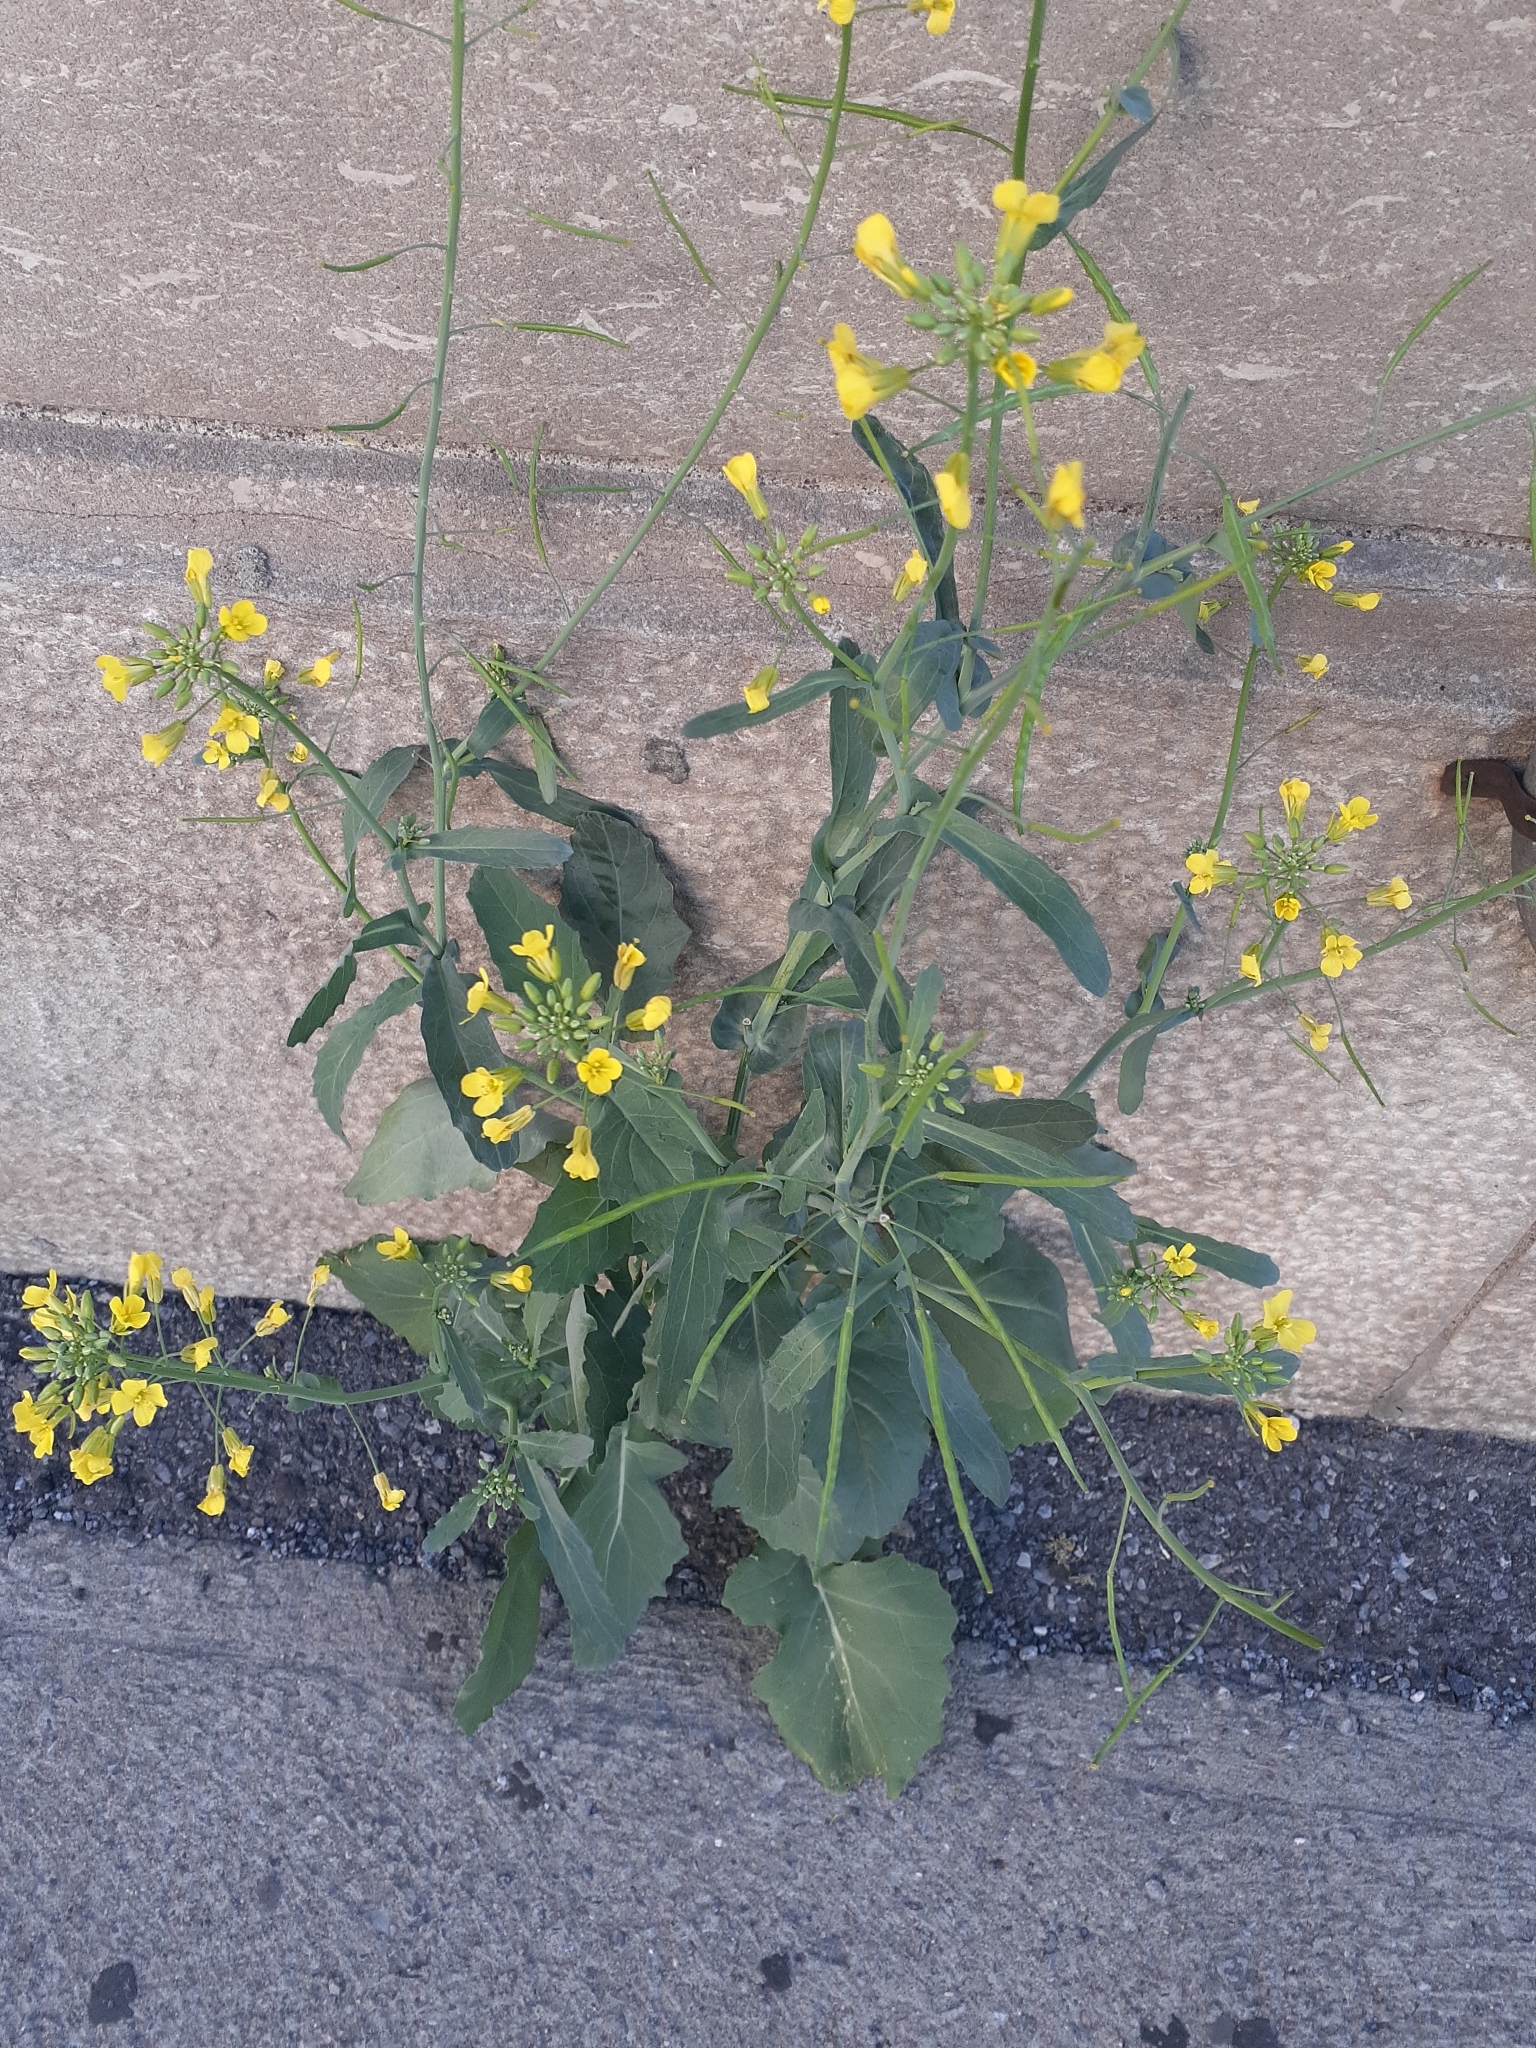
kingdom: Plantae
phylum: Tracheophyta
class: Magnoliopsida
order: Brassicales
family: Brassicaceae
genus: Brassica
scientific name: Brassica rapa
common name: Field mustard
